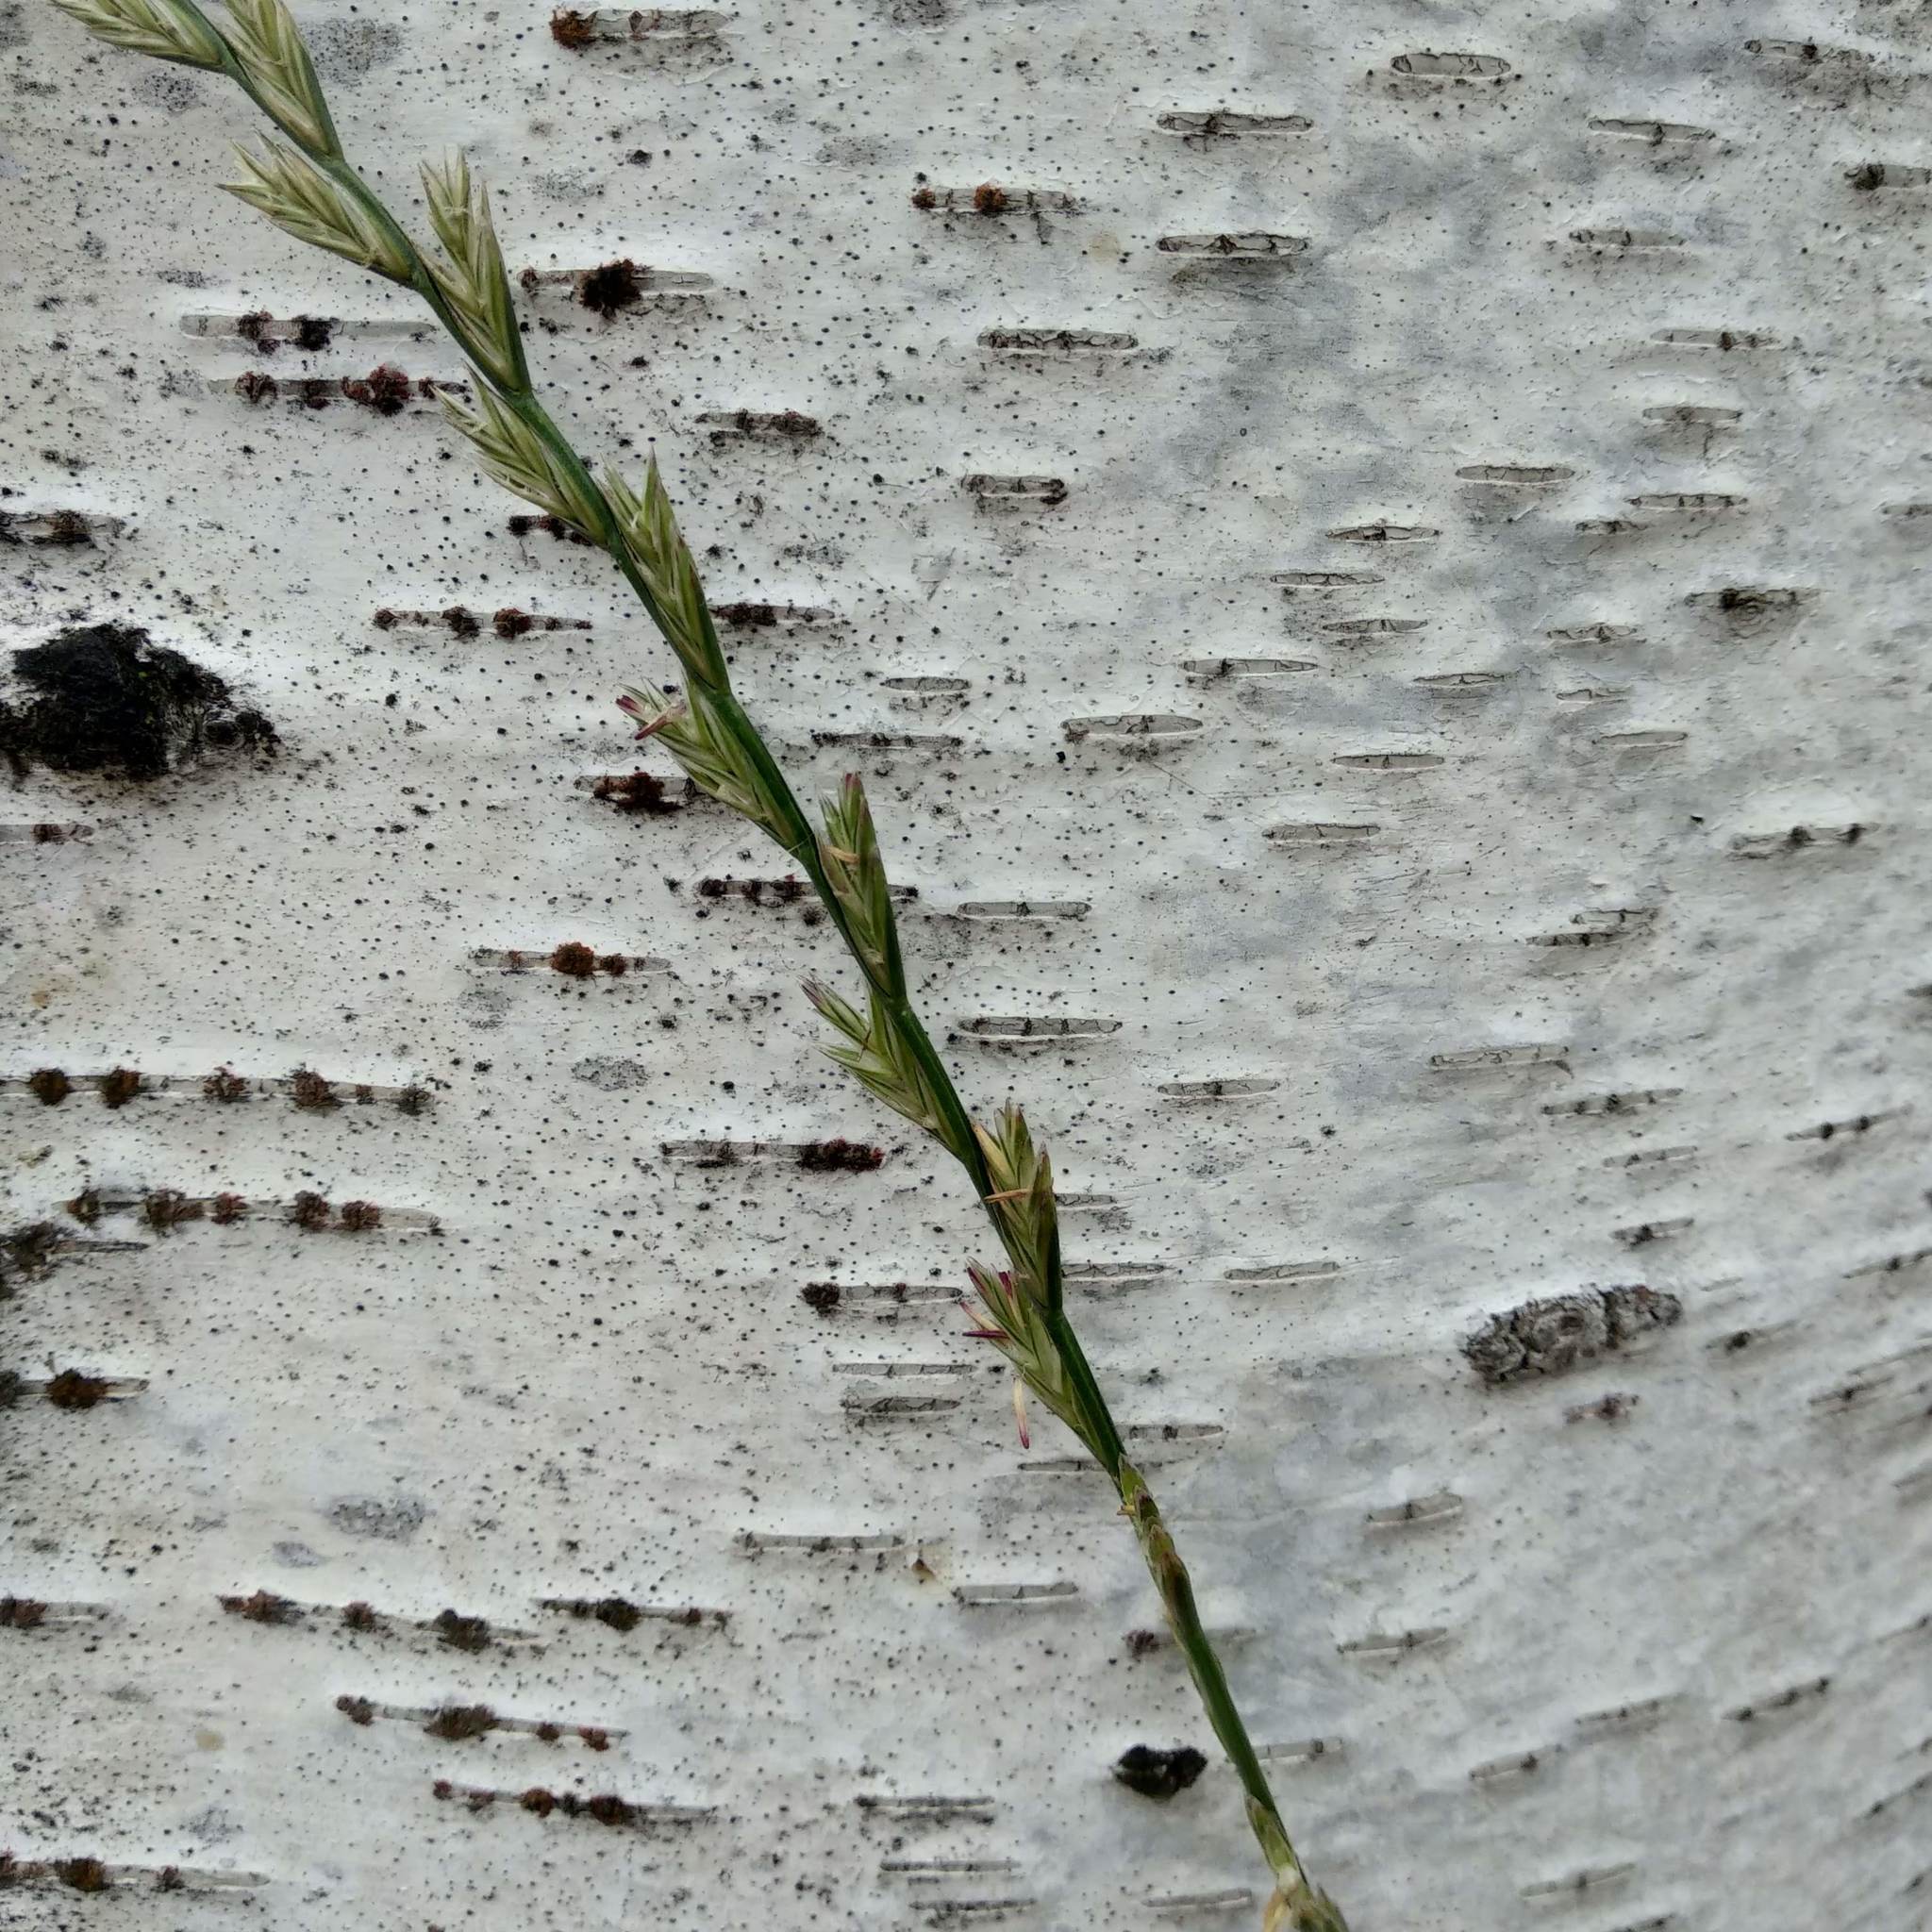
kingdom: Plantae
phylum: Tracheophyta
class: Liliopsida
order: Poales
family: Poaceae
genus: Lolium
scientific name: Lolium perenne
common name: Perennial ryegrass
